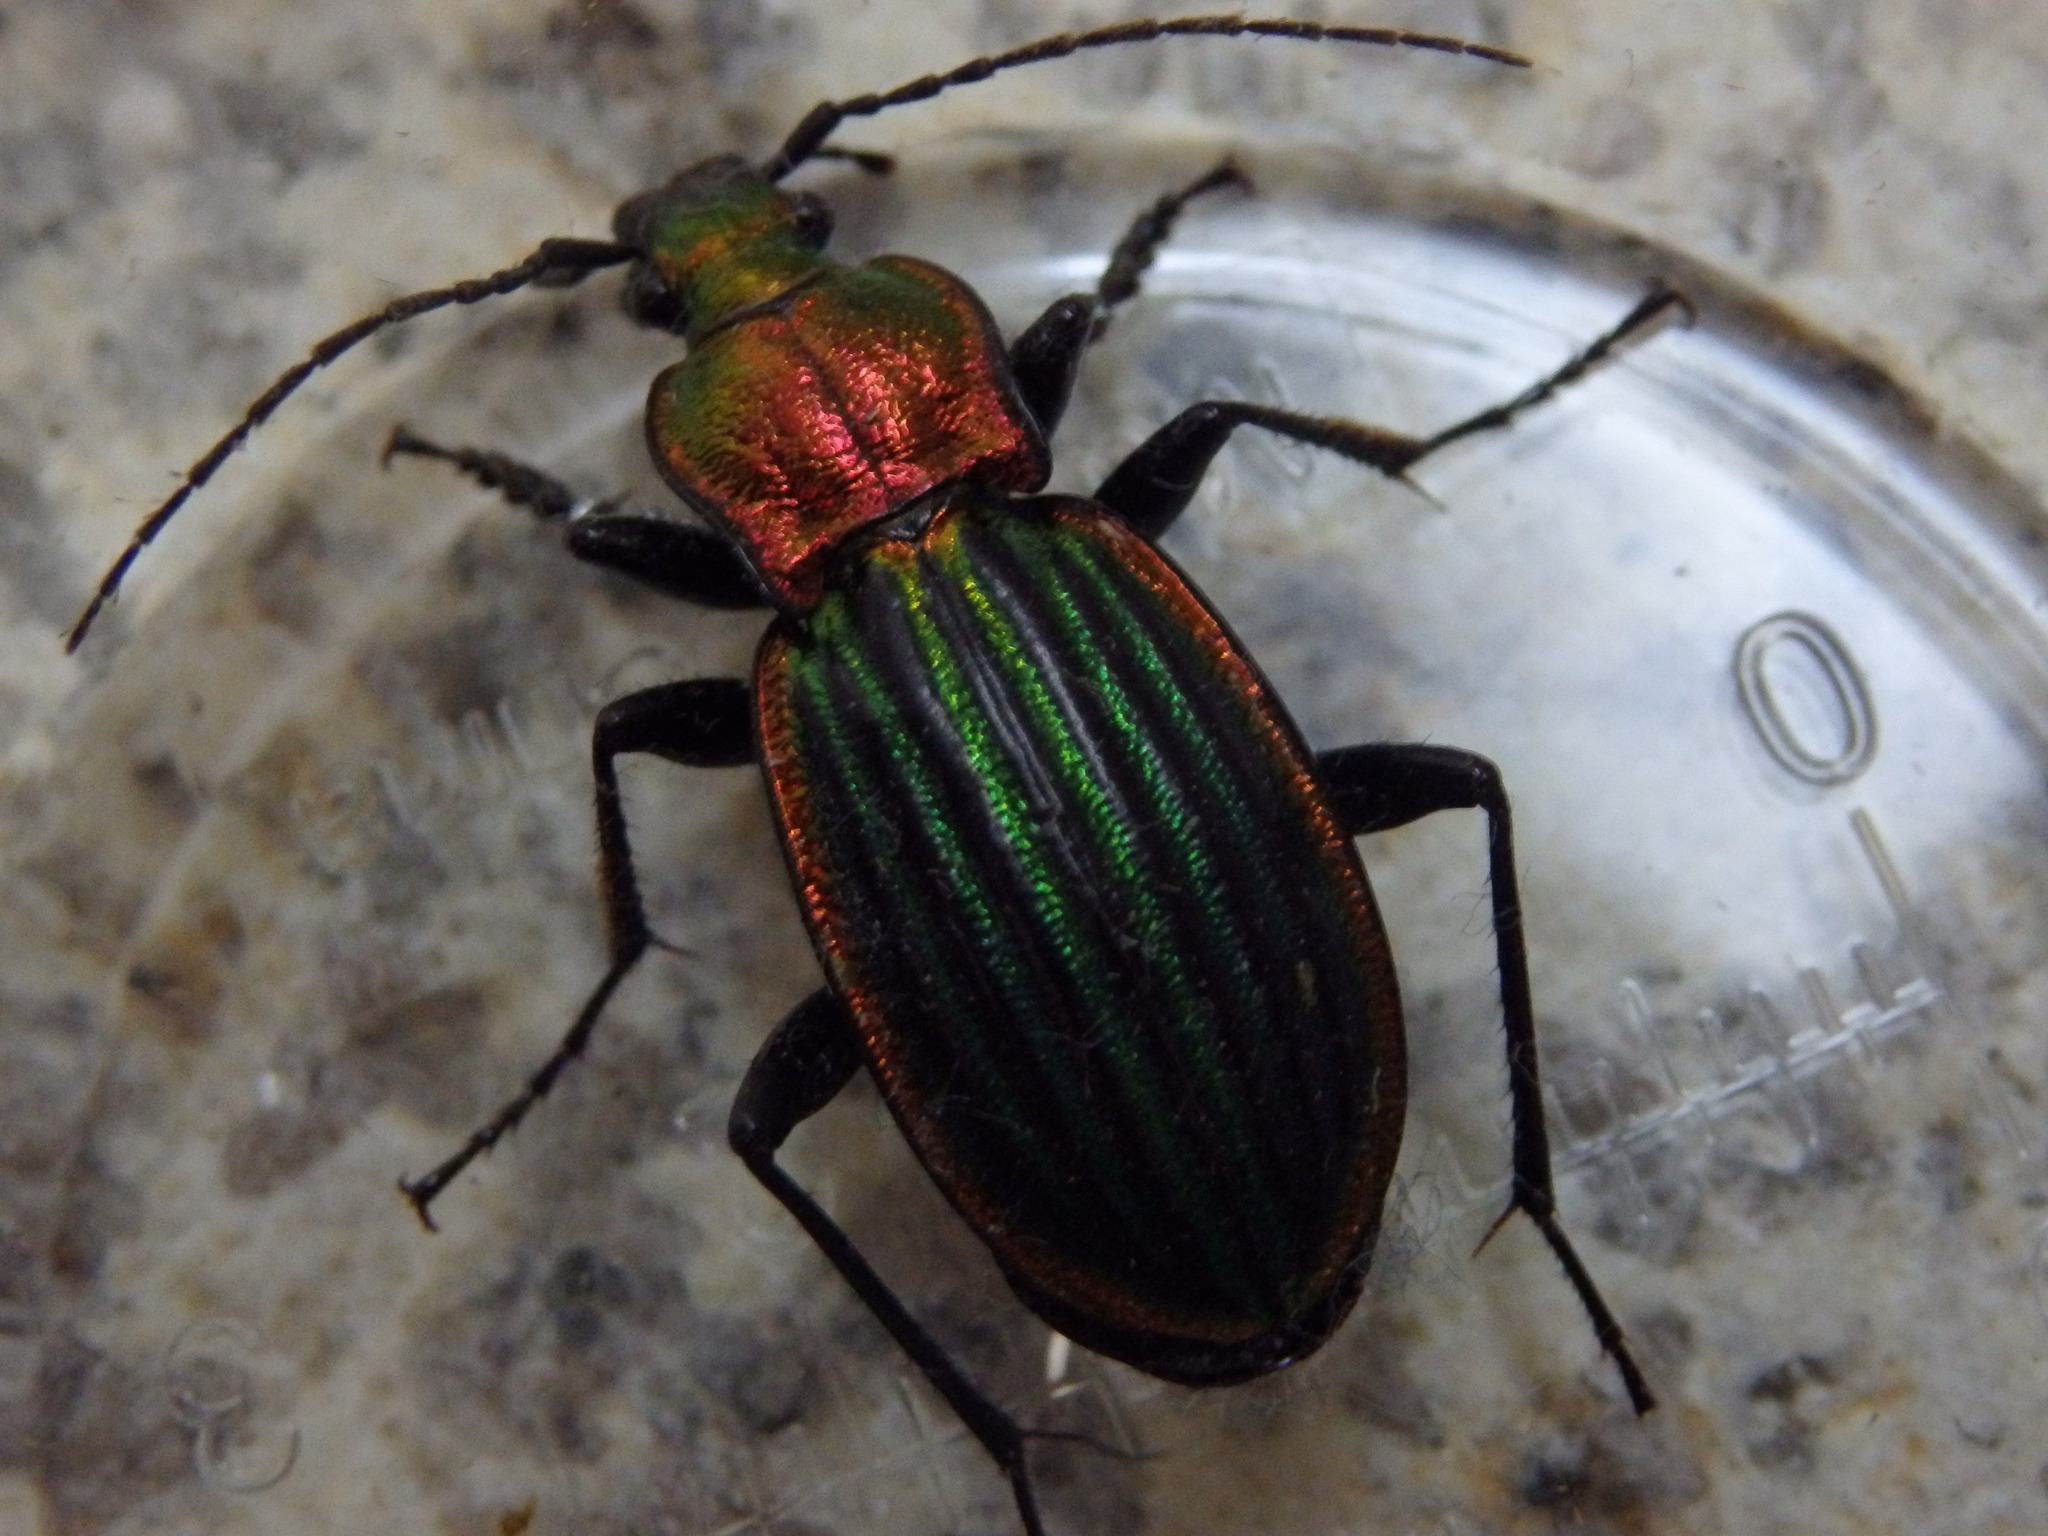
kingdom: Animalia
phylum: Arthropoda
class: Insecta
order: Coleoptera
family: Carabidae
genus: Carabus
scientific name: Carabus strasseri
